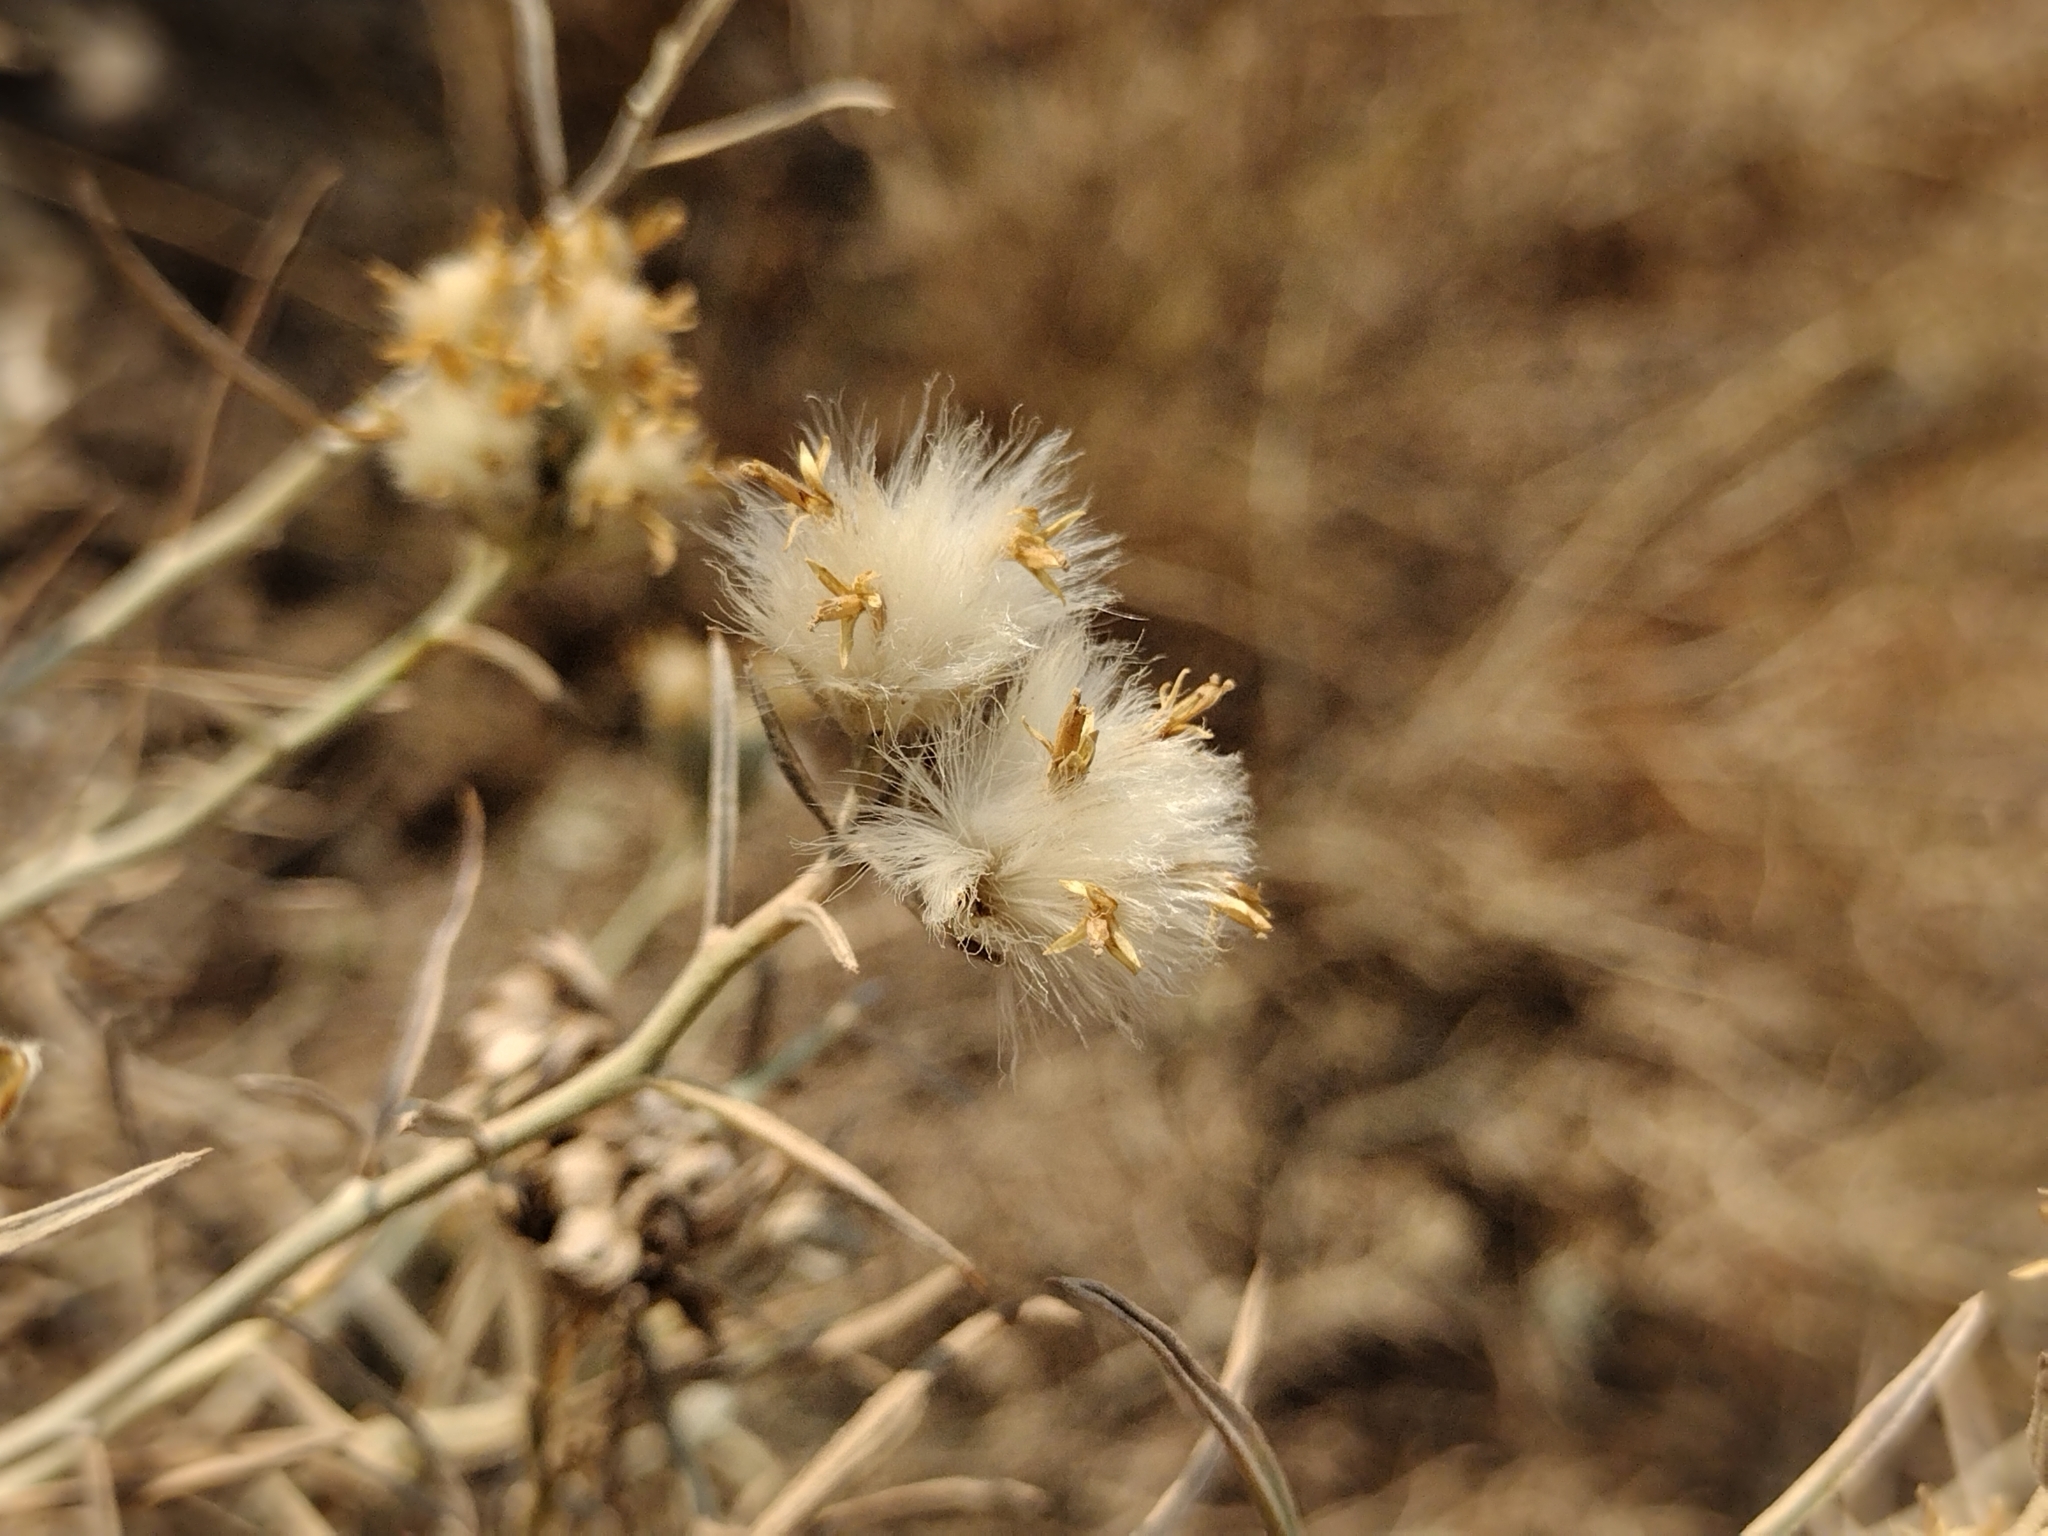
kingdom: Plantae
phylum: Tracheophyta
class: Magnoliopsida
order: Asterales
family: Asteraceae
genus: Tetradymia
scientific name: Tetradymia comosa
